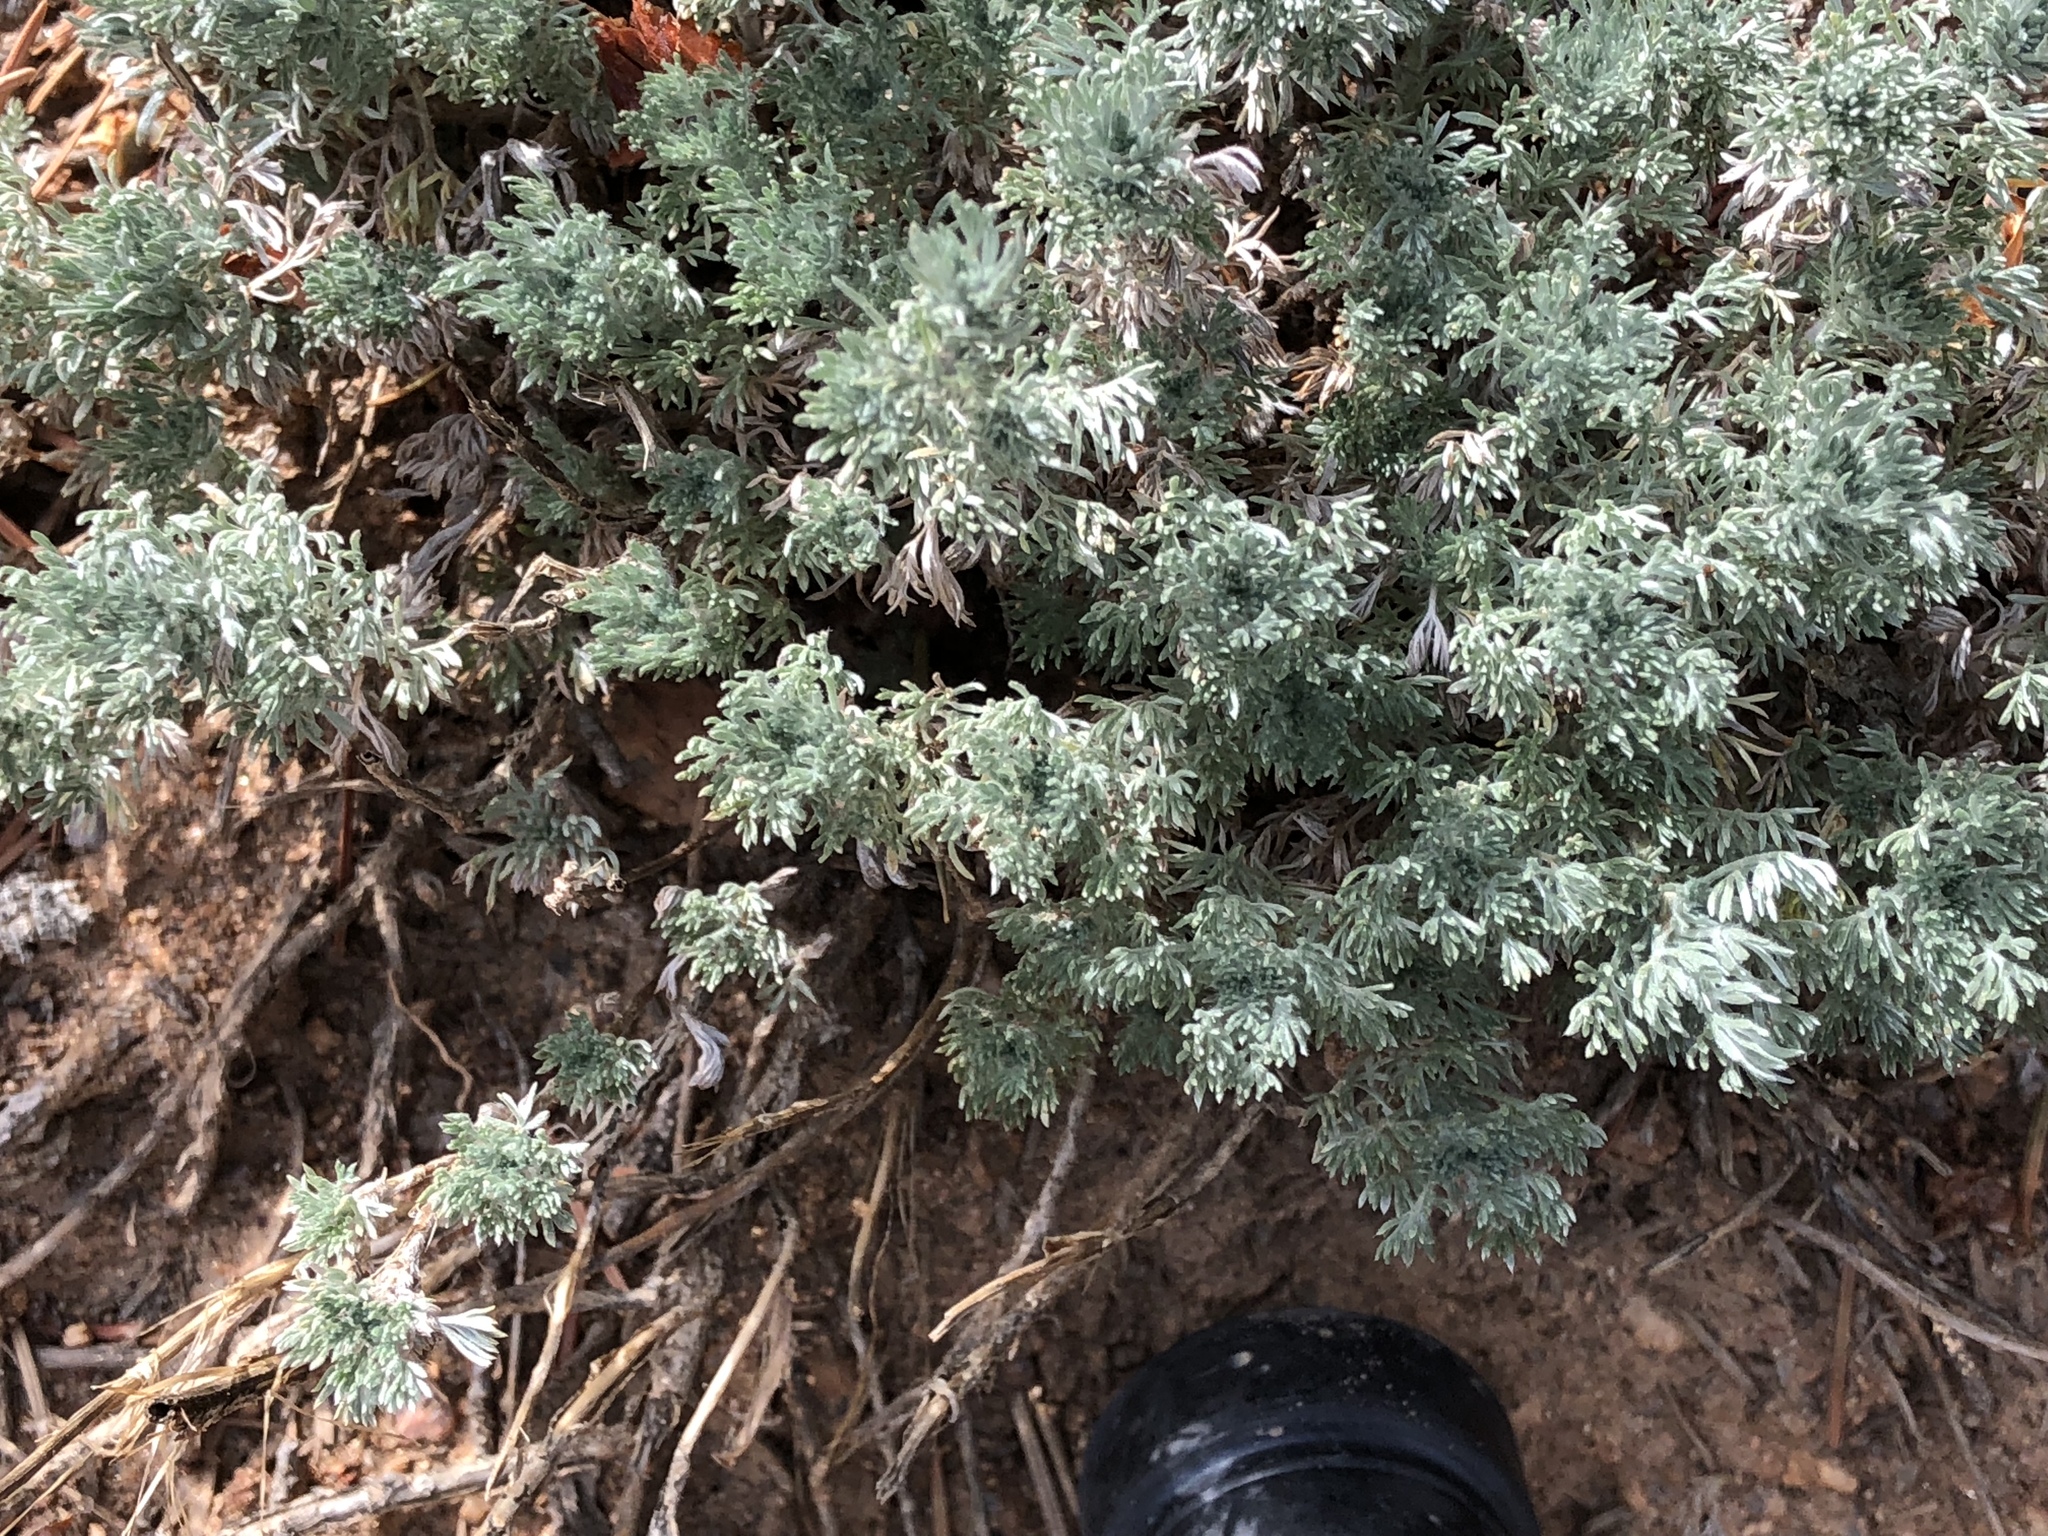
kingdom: Plantae
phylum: Tracheophyta
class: Magnoliopsida
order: Asterales
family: Asteraceae
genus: Artemisia
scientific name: Artemisia frigida
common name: Prairie sagewort
